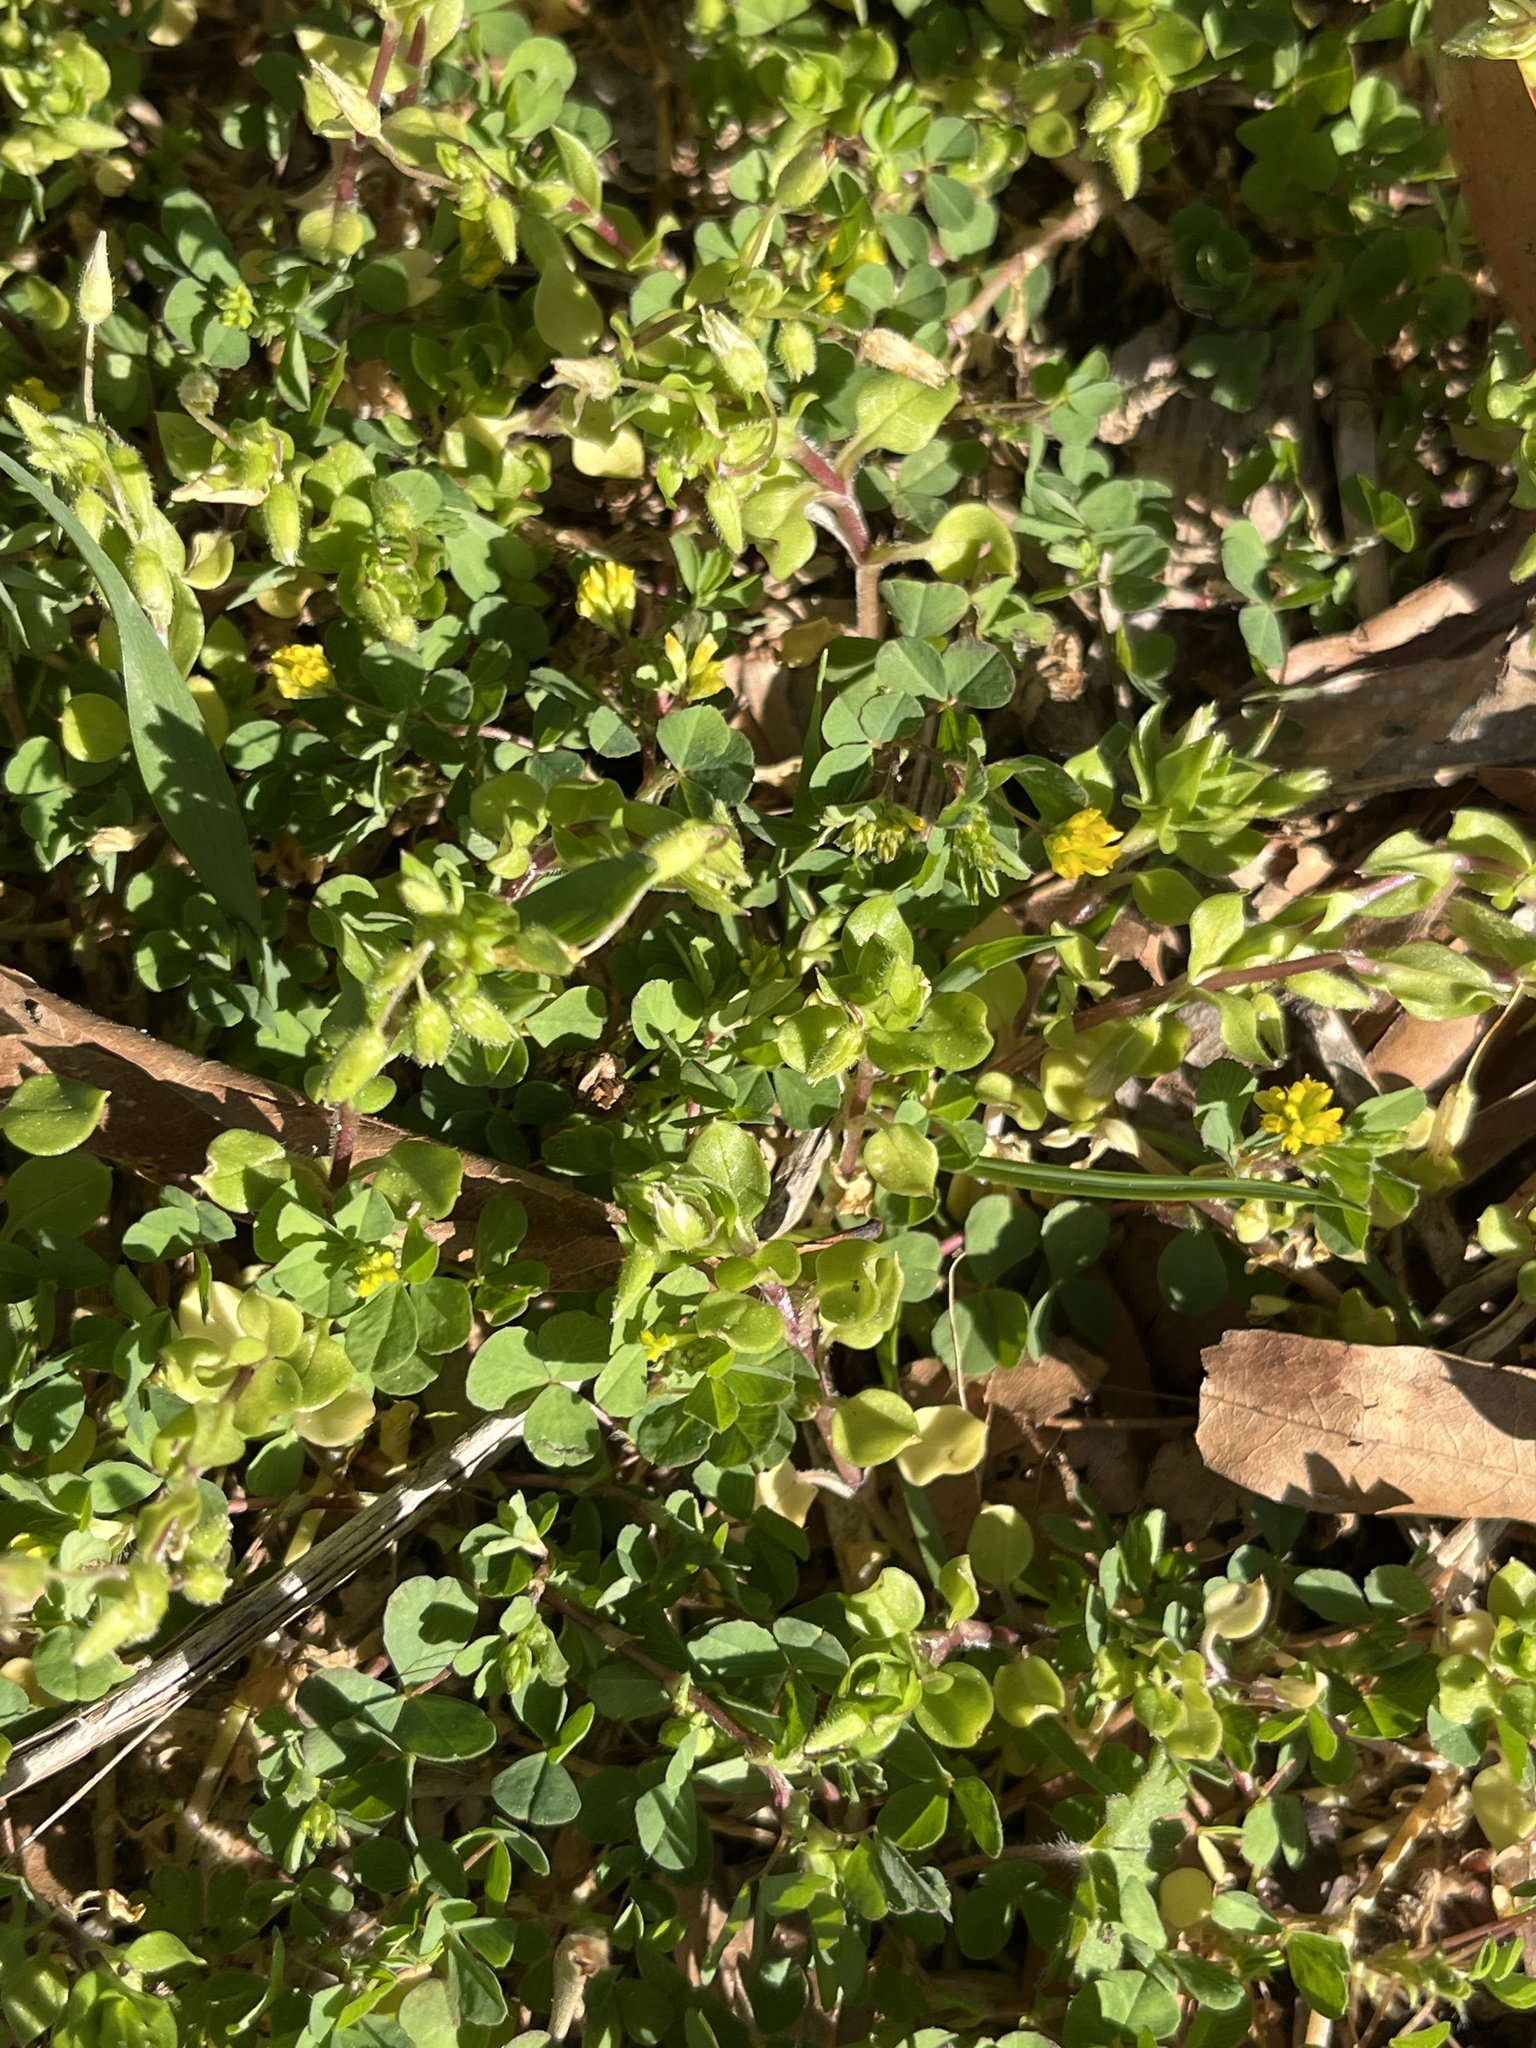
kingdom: Plantae
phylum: Tracheophyta
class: Magnoliopsida
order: Fabales
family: Fabaceae
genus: Trifolium
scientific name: Trifolium dubium
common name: Suckling clover
